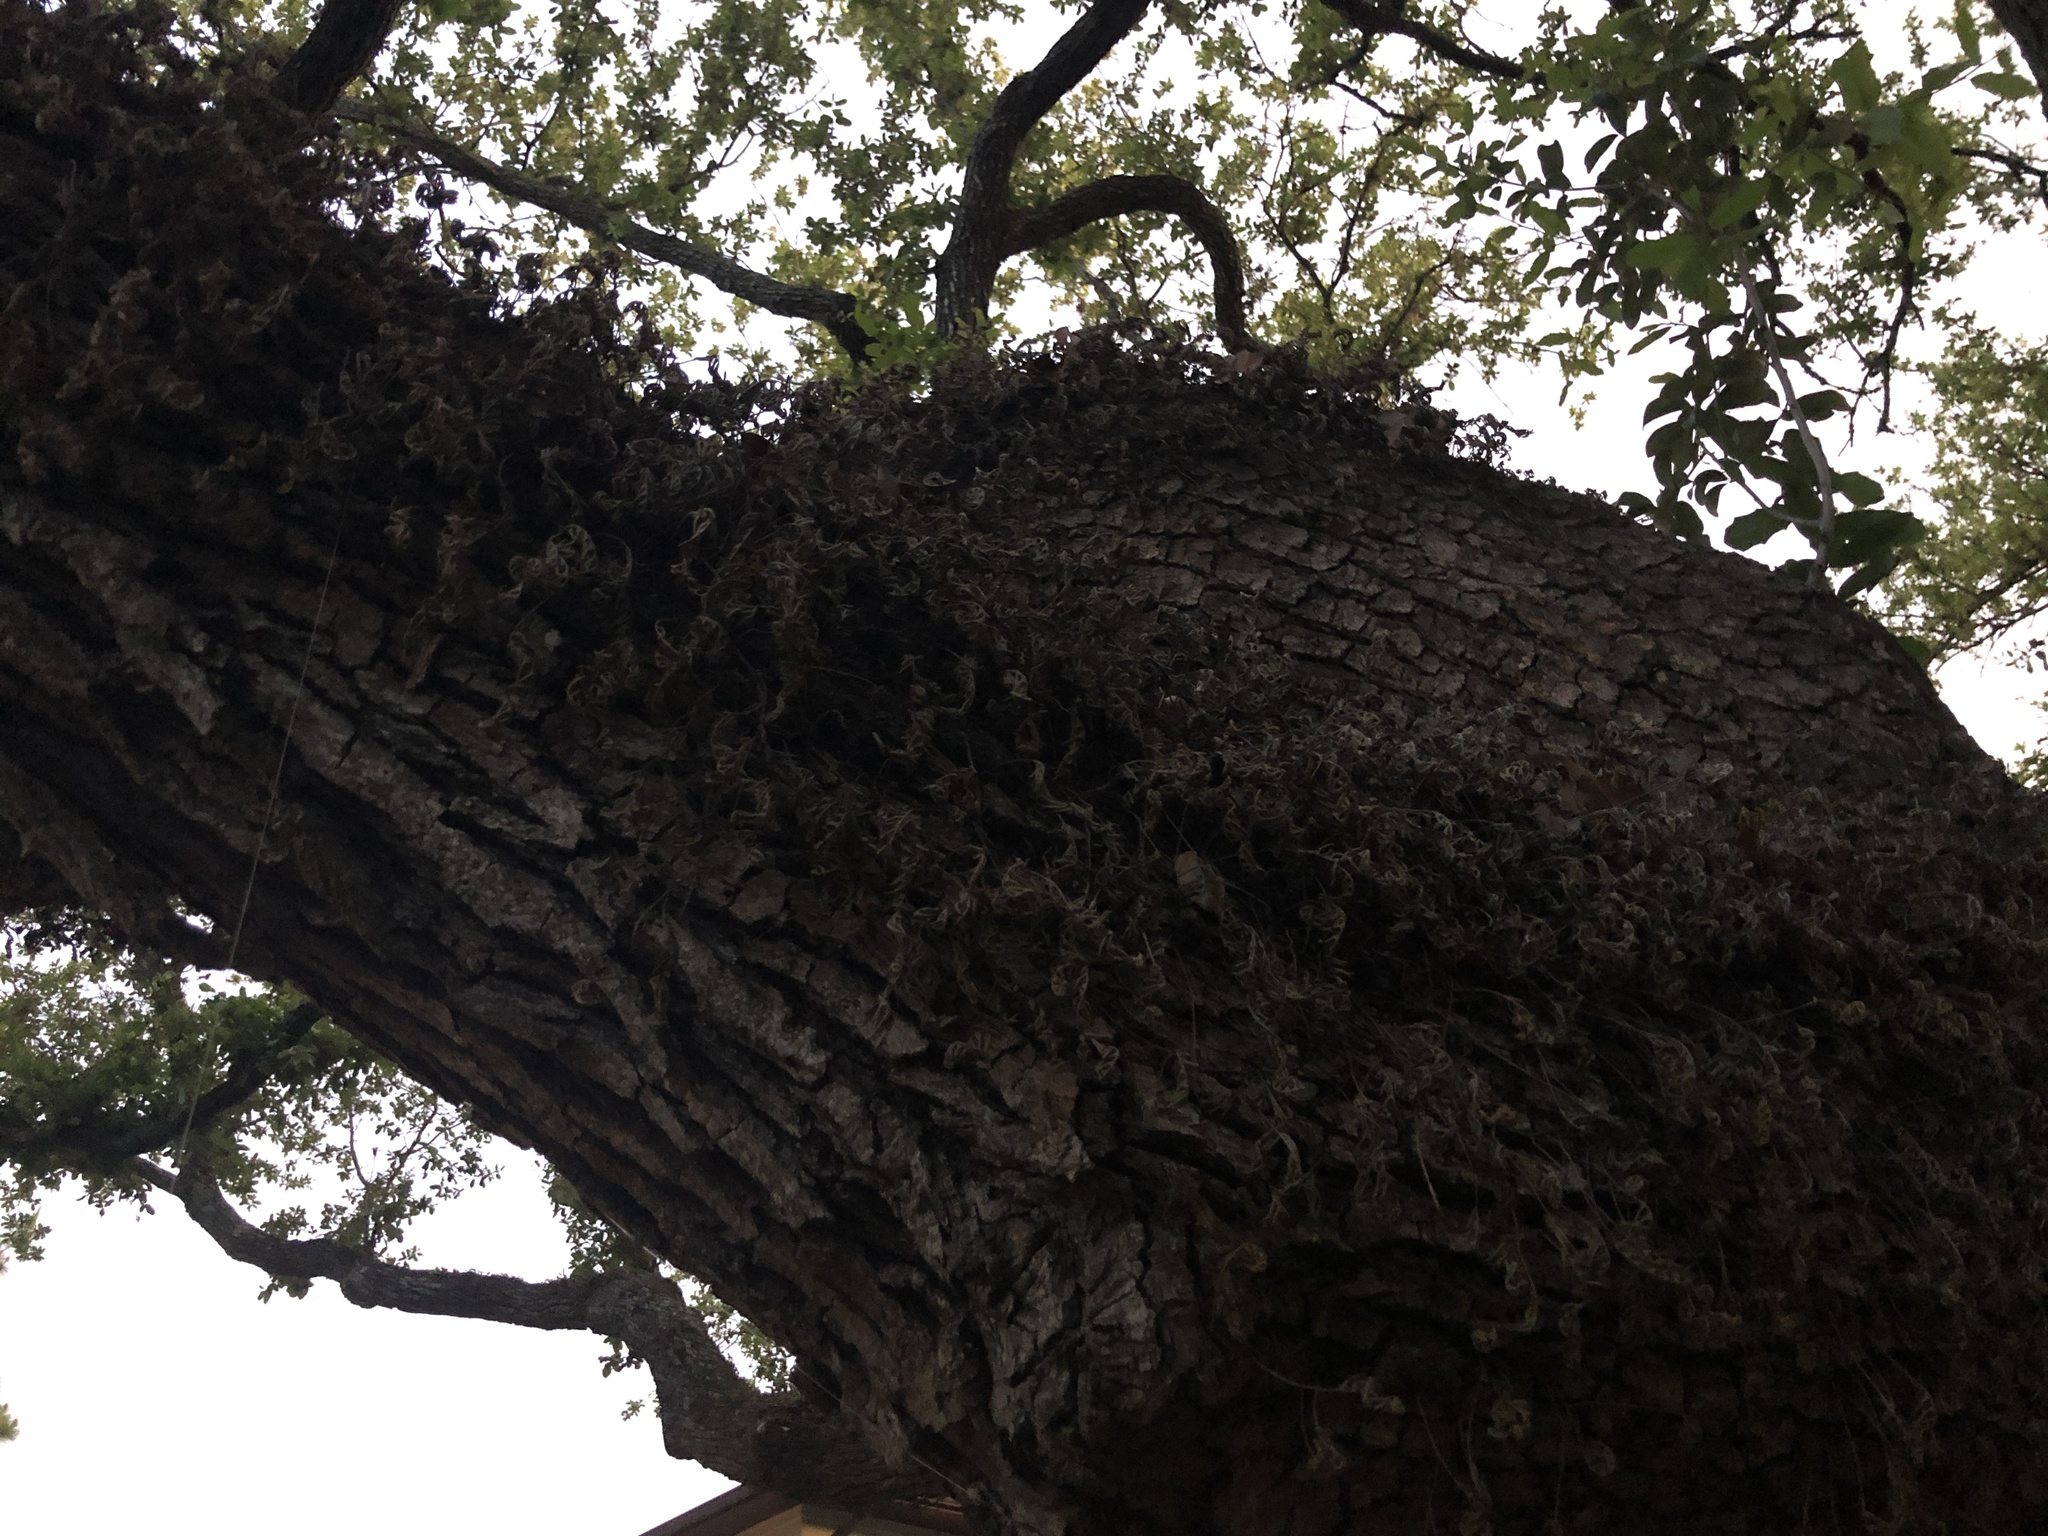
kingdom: Plantae
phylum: Tracheophyta
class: Polypodiopsida
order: Polypodiales
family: Polypodiaceae
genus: Pleopeltis
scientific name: Pleopeltis michauxiana
